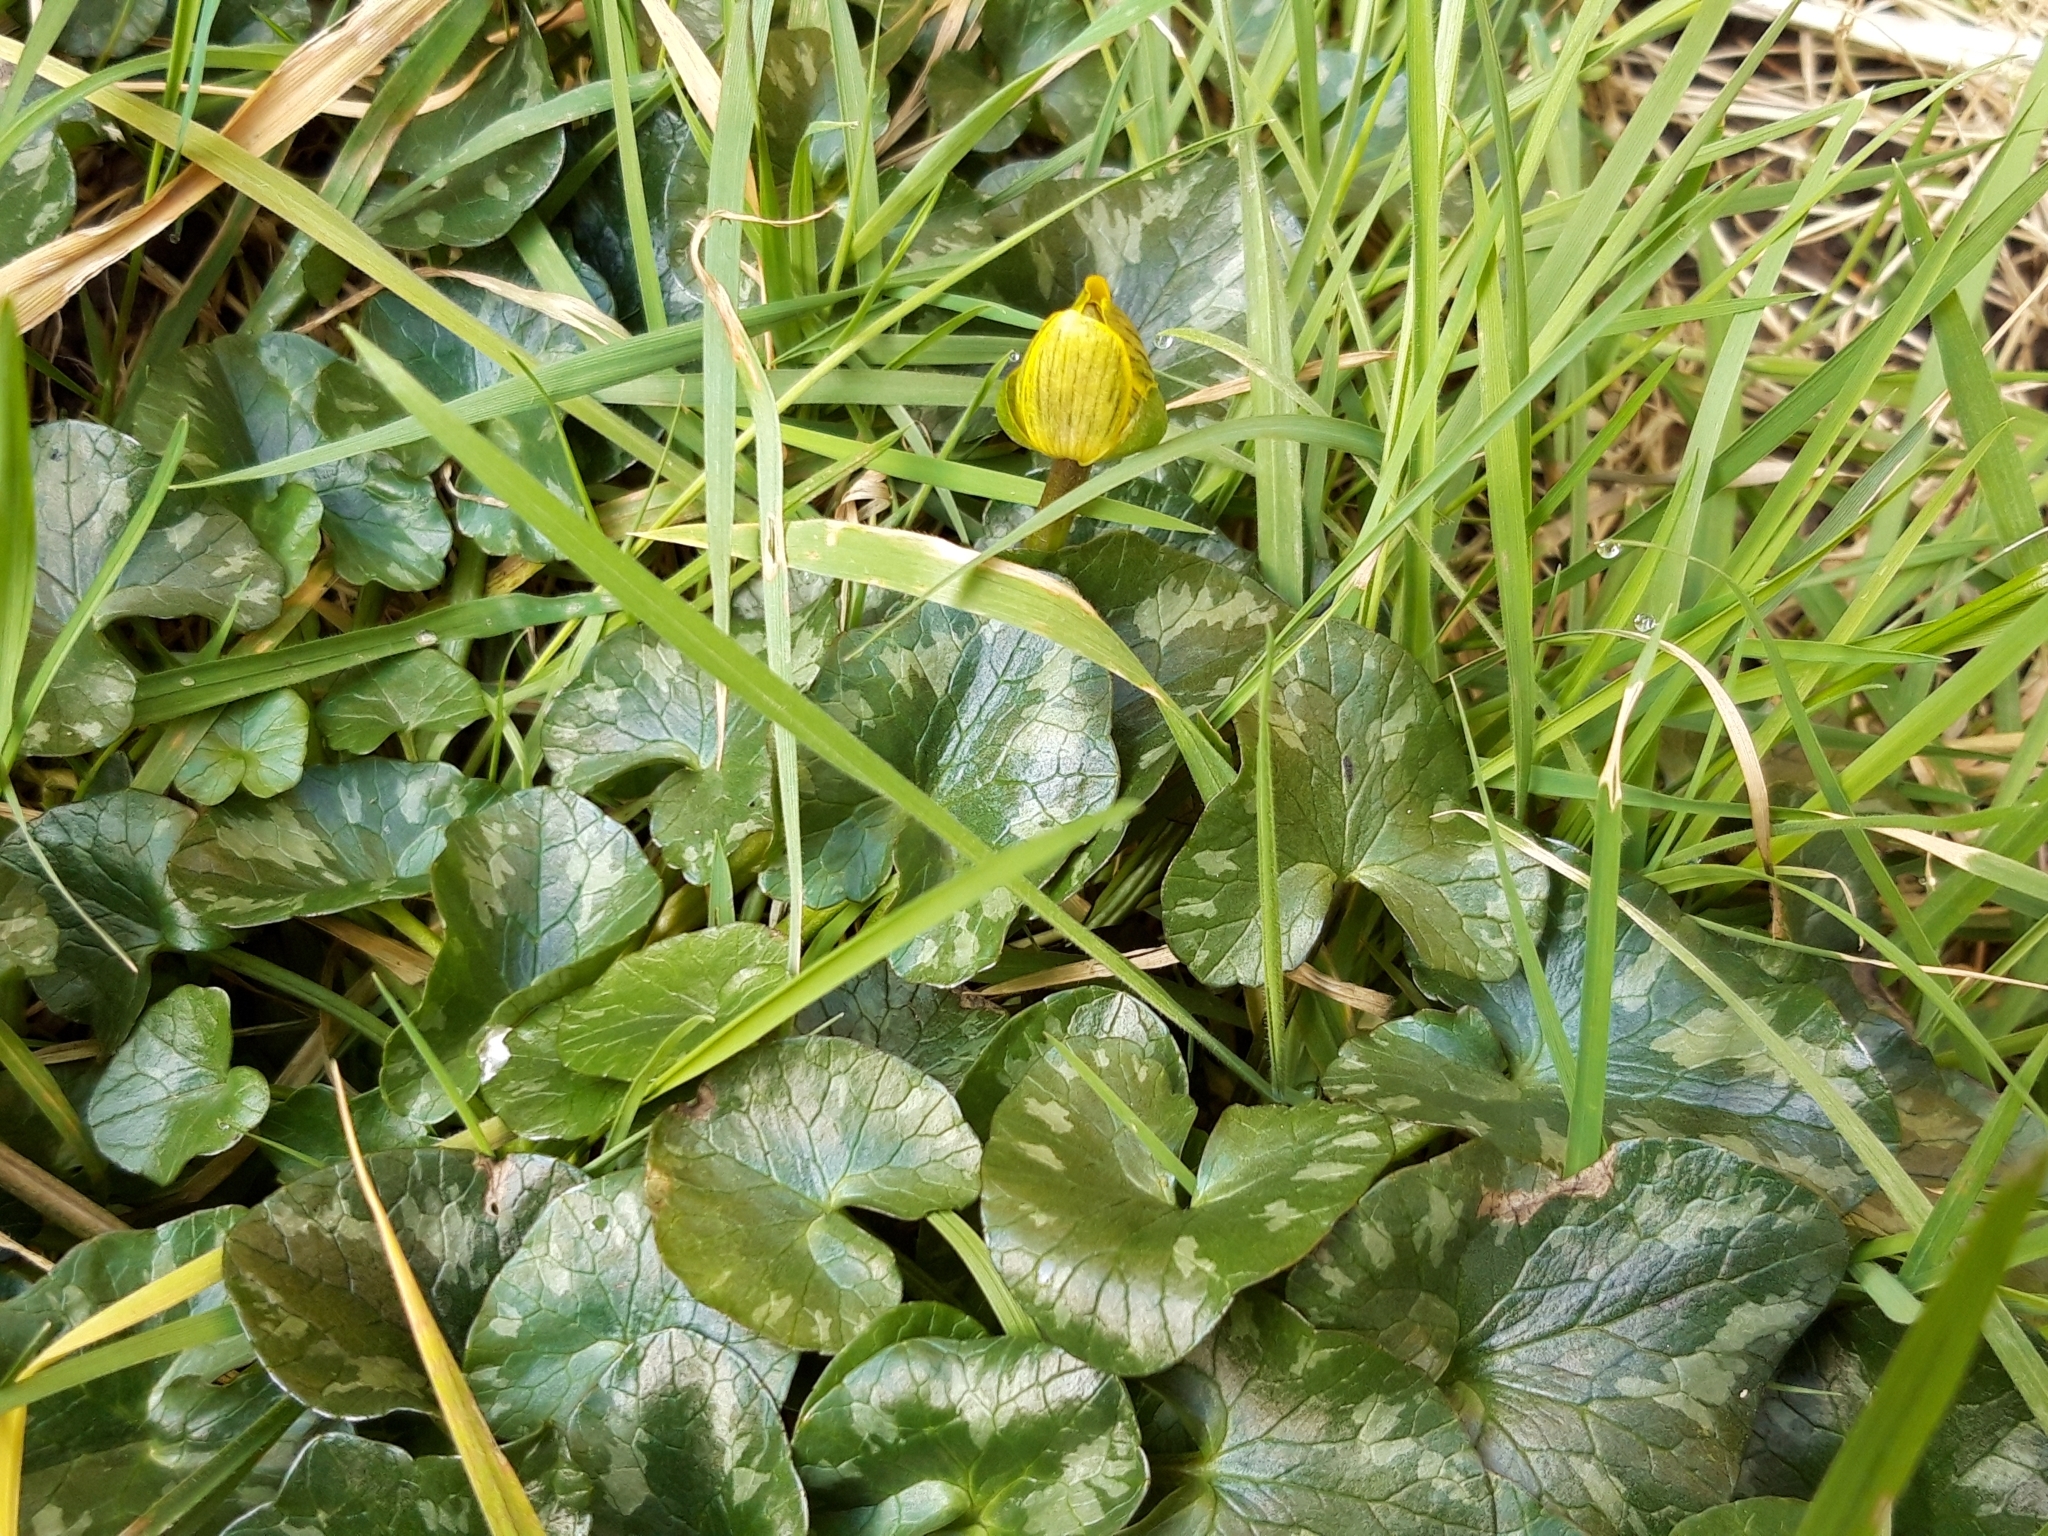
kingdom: Plantae
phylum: Tracheophyta
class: Magnoliopsida
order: Ranunculales
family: Ranunculaceae
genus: Ficaria
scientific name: Ficaria verna
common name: Lesser celandine
